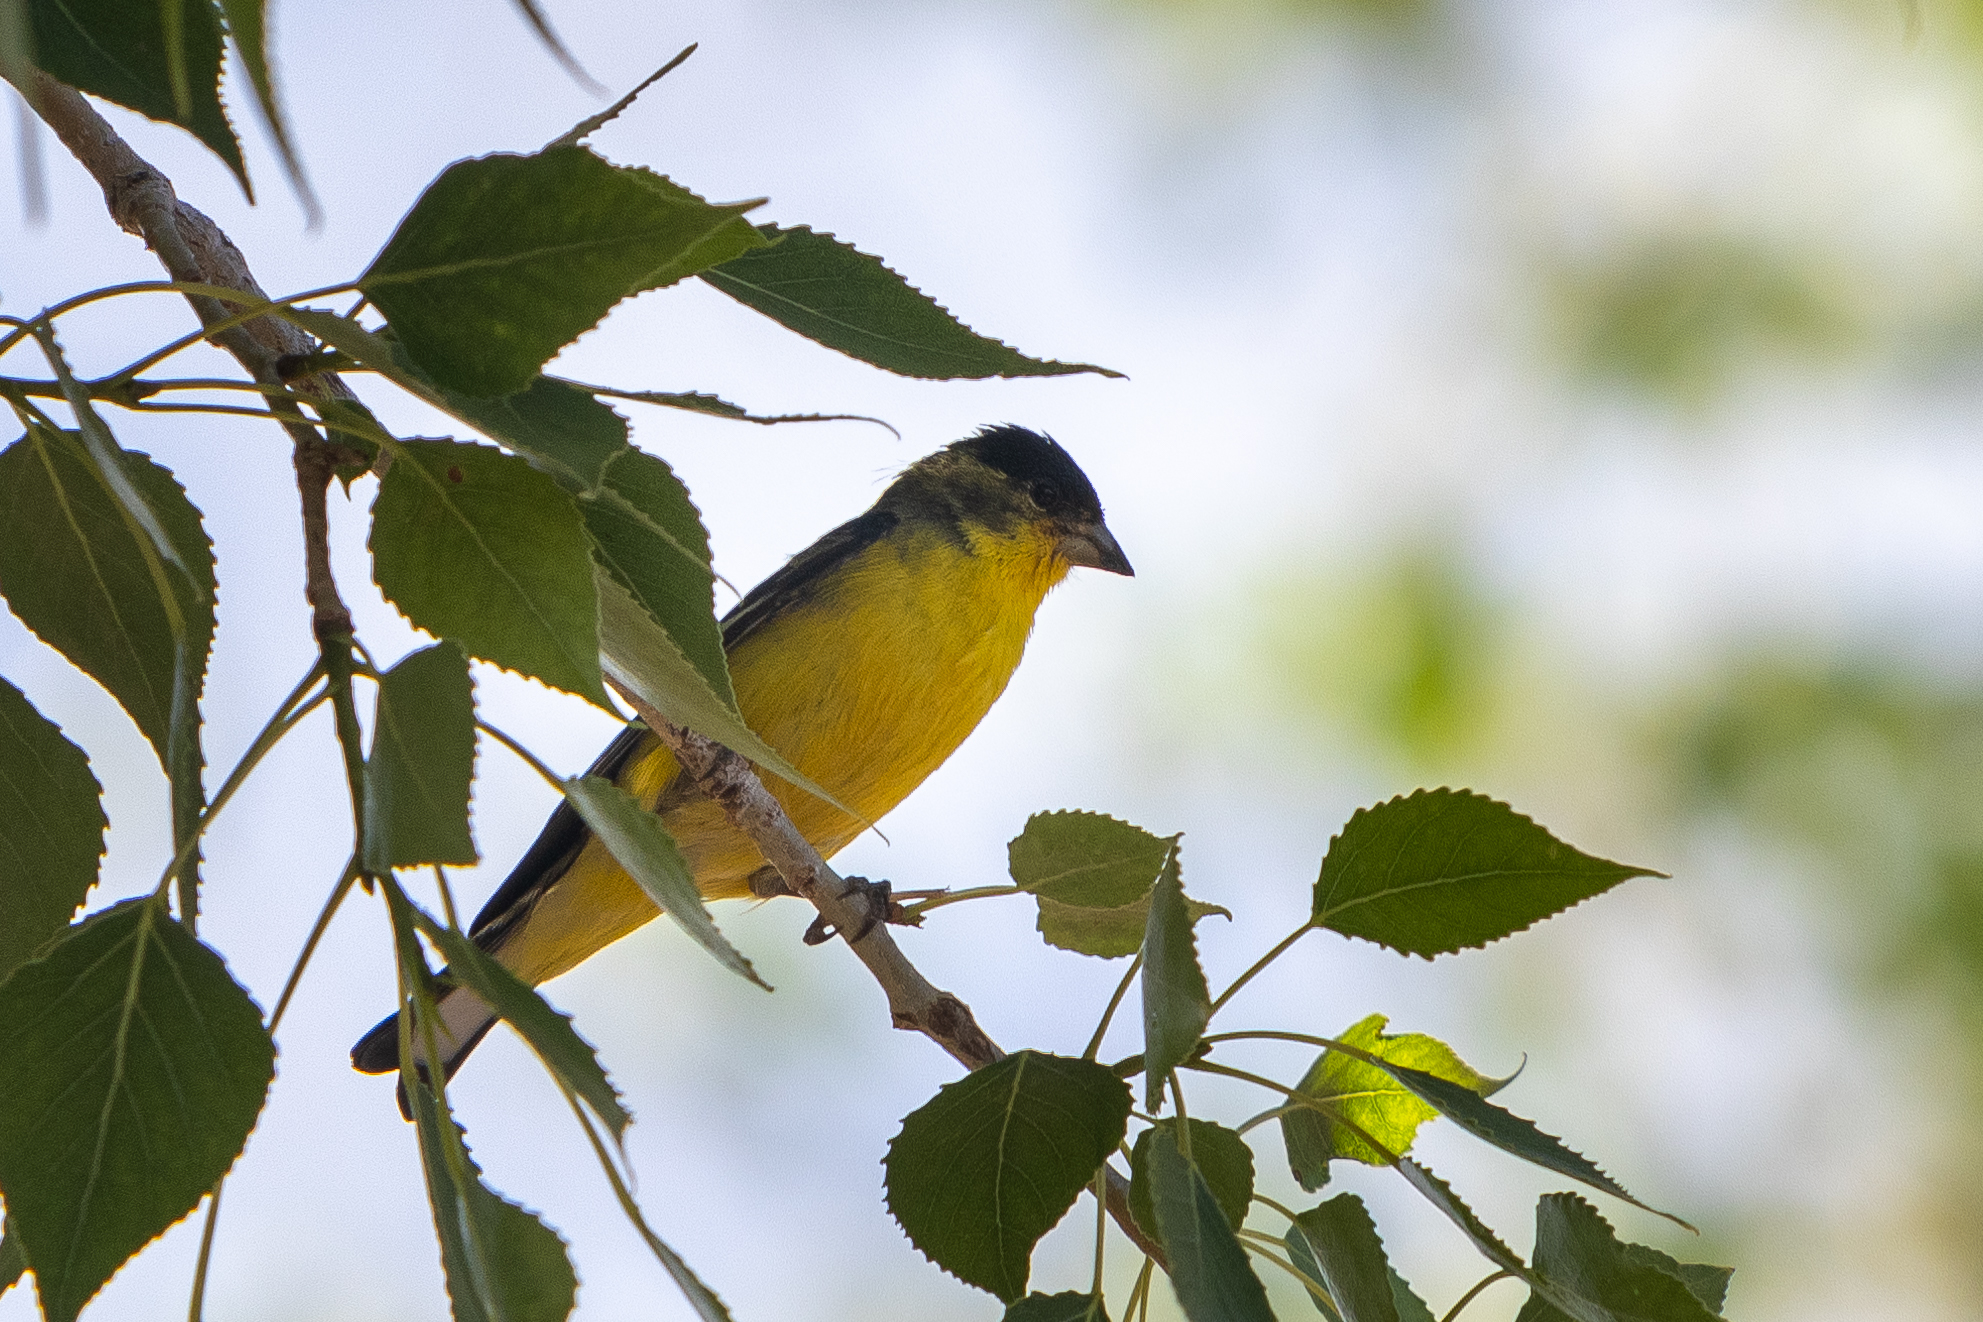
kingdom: Animalia
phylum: Chordata
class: Aves
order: Passeriformes
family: Fringillidae
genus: Spinus
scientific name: Spinus psaltria
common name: Lesser goldfinch
